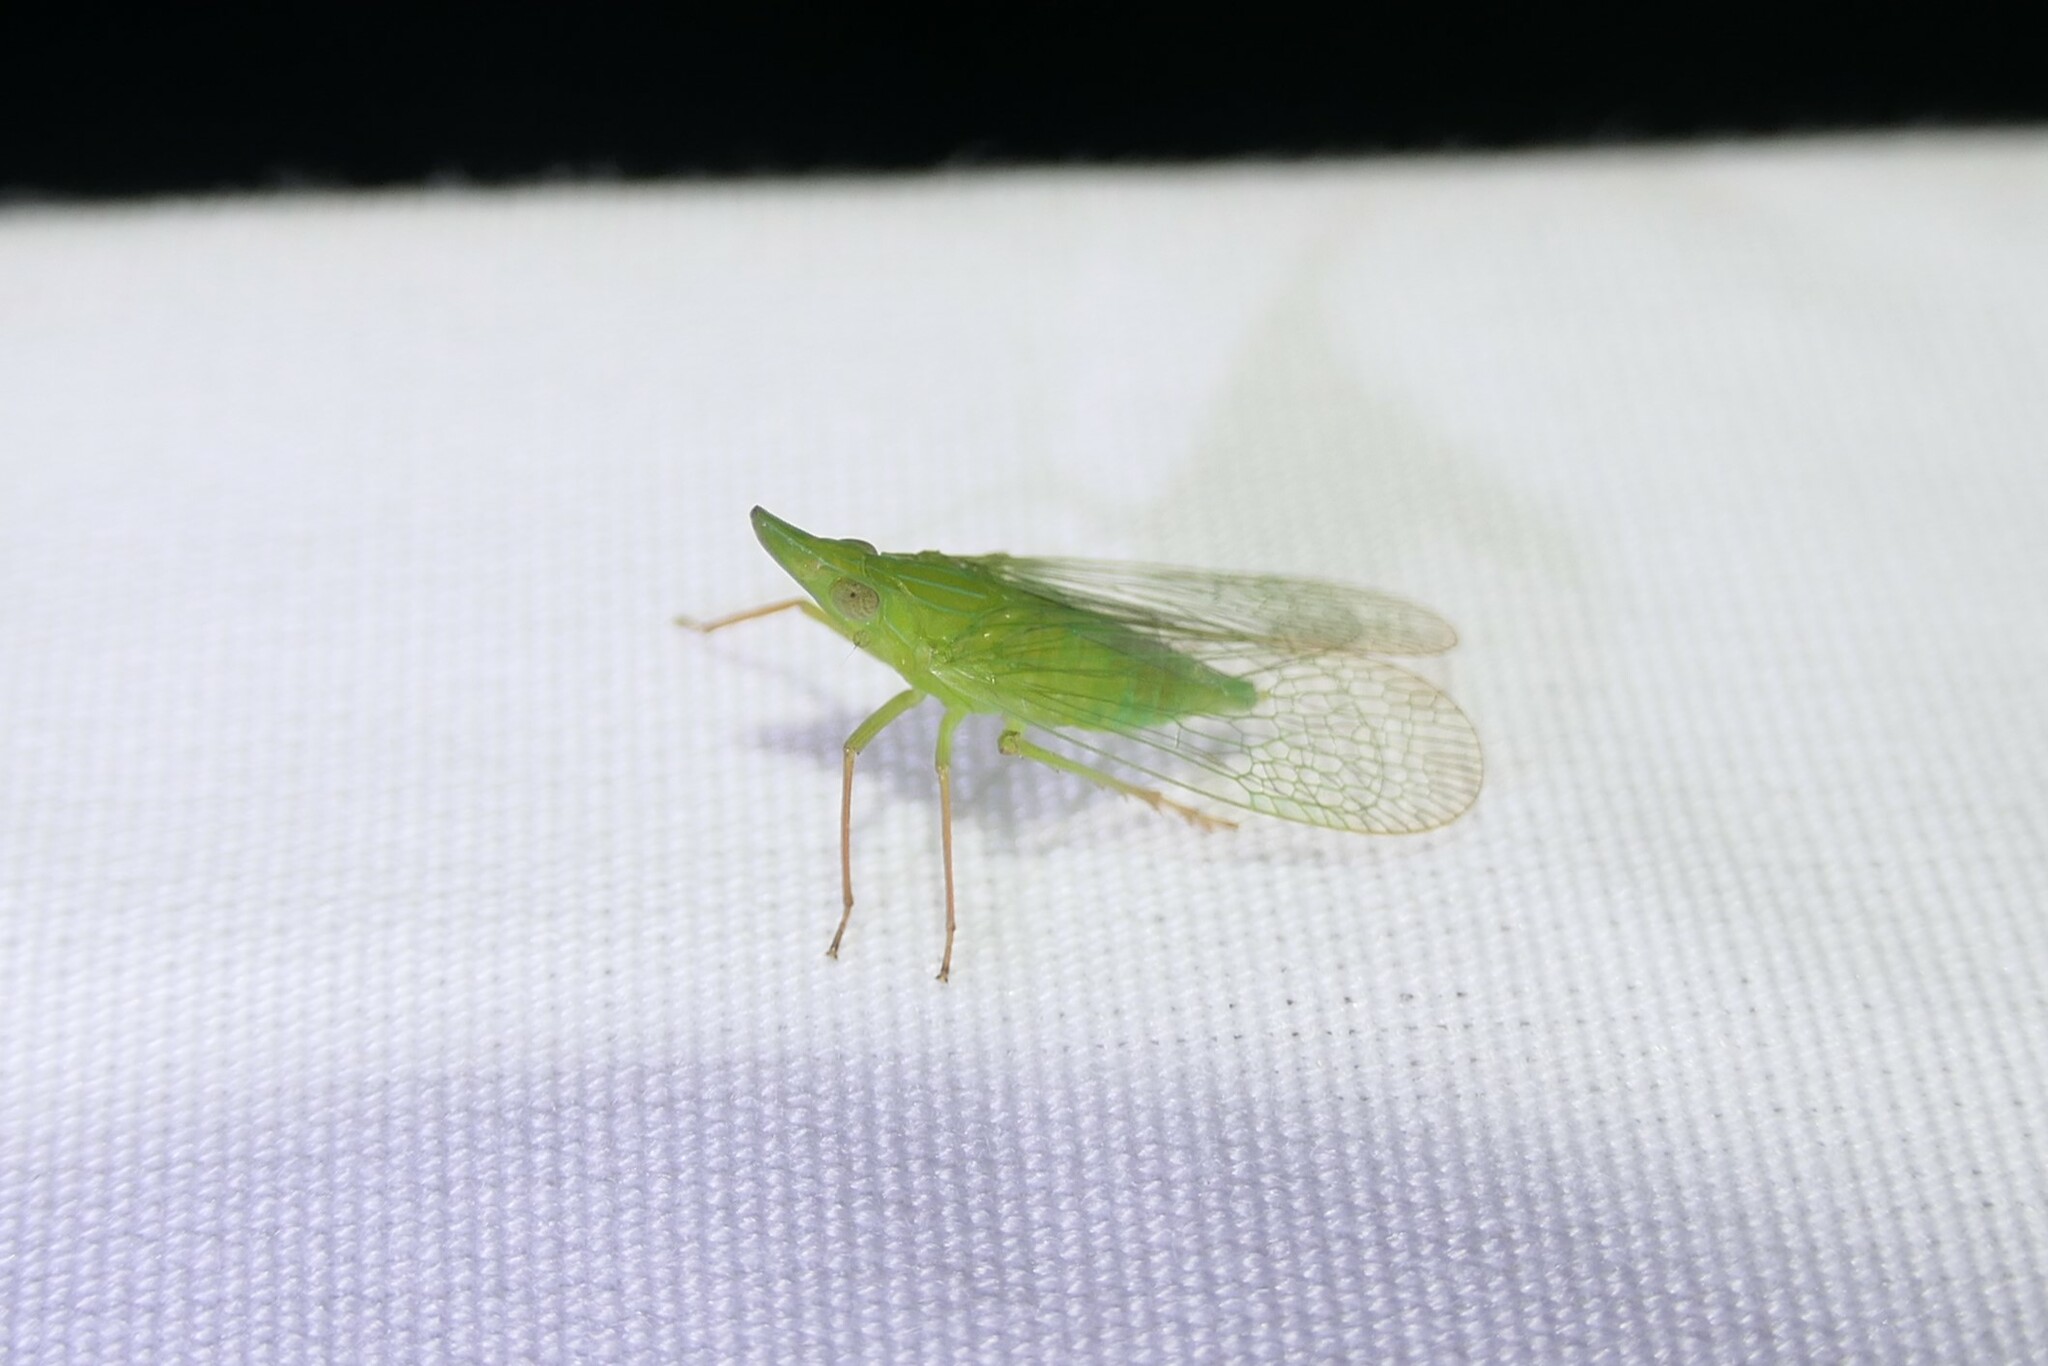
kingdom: Animalia
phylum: Arthropoda
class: Insecta
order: Hemiptera
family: Dictyopharidae
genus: Rhynchomitra
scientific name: Rhynchomitra microrhina
